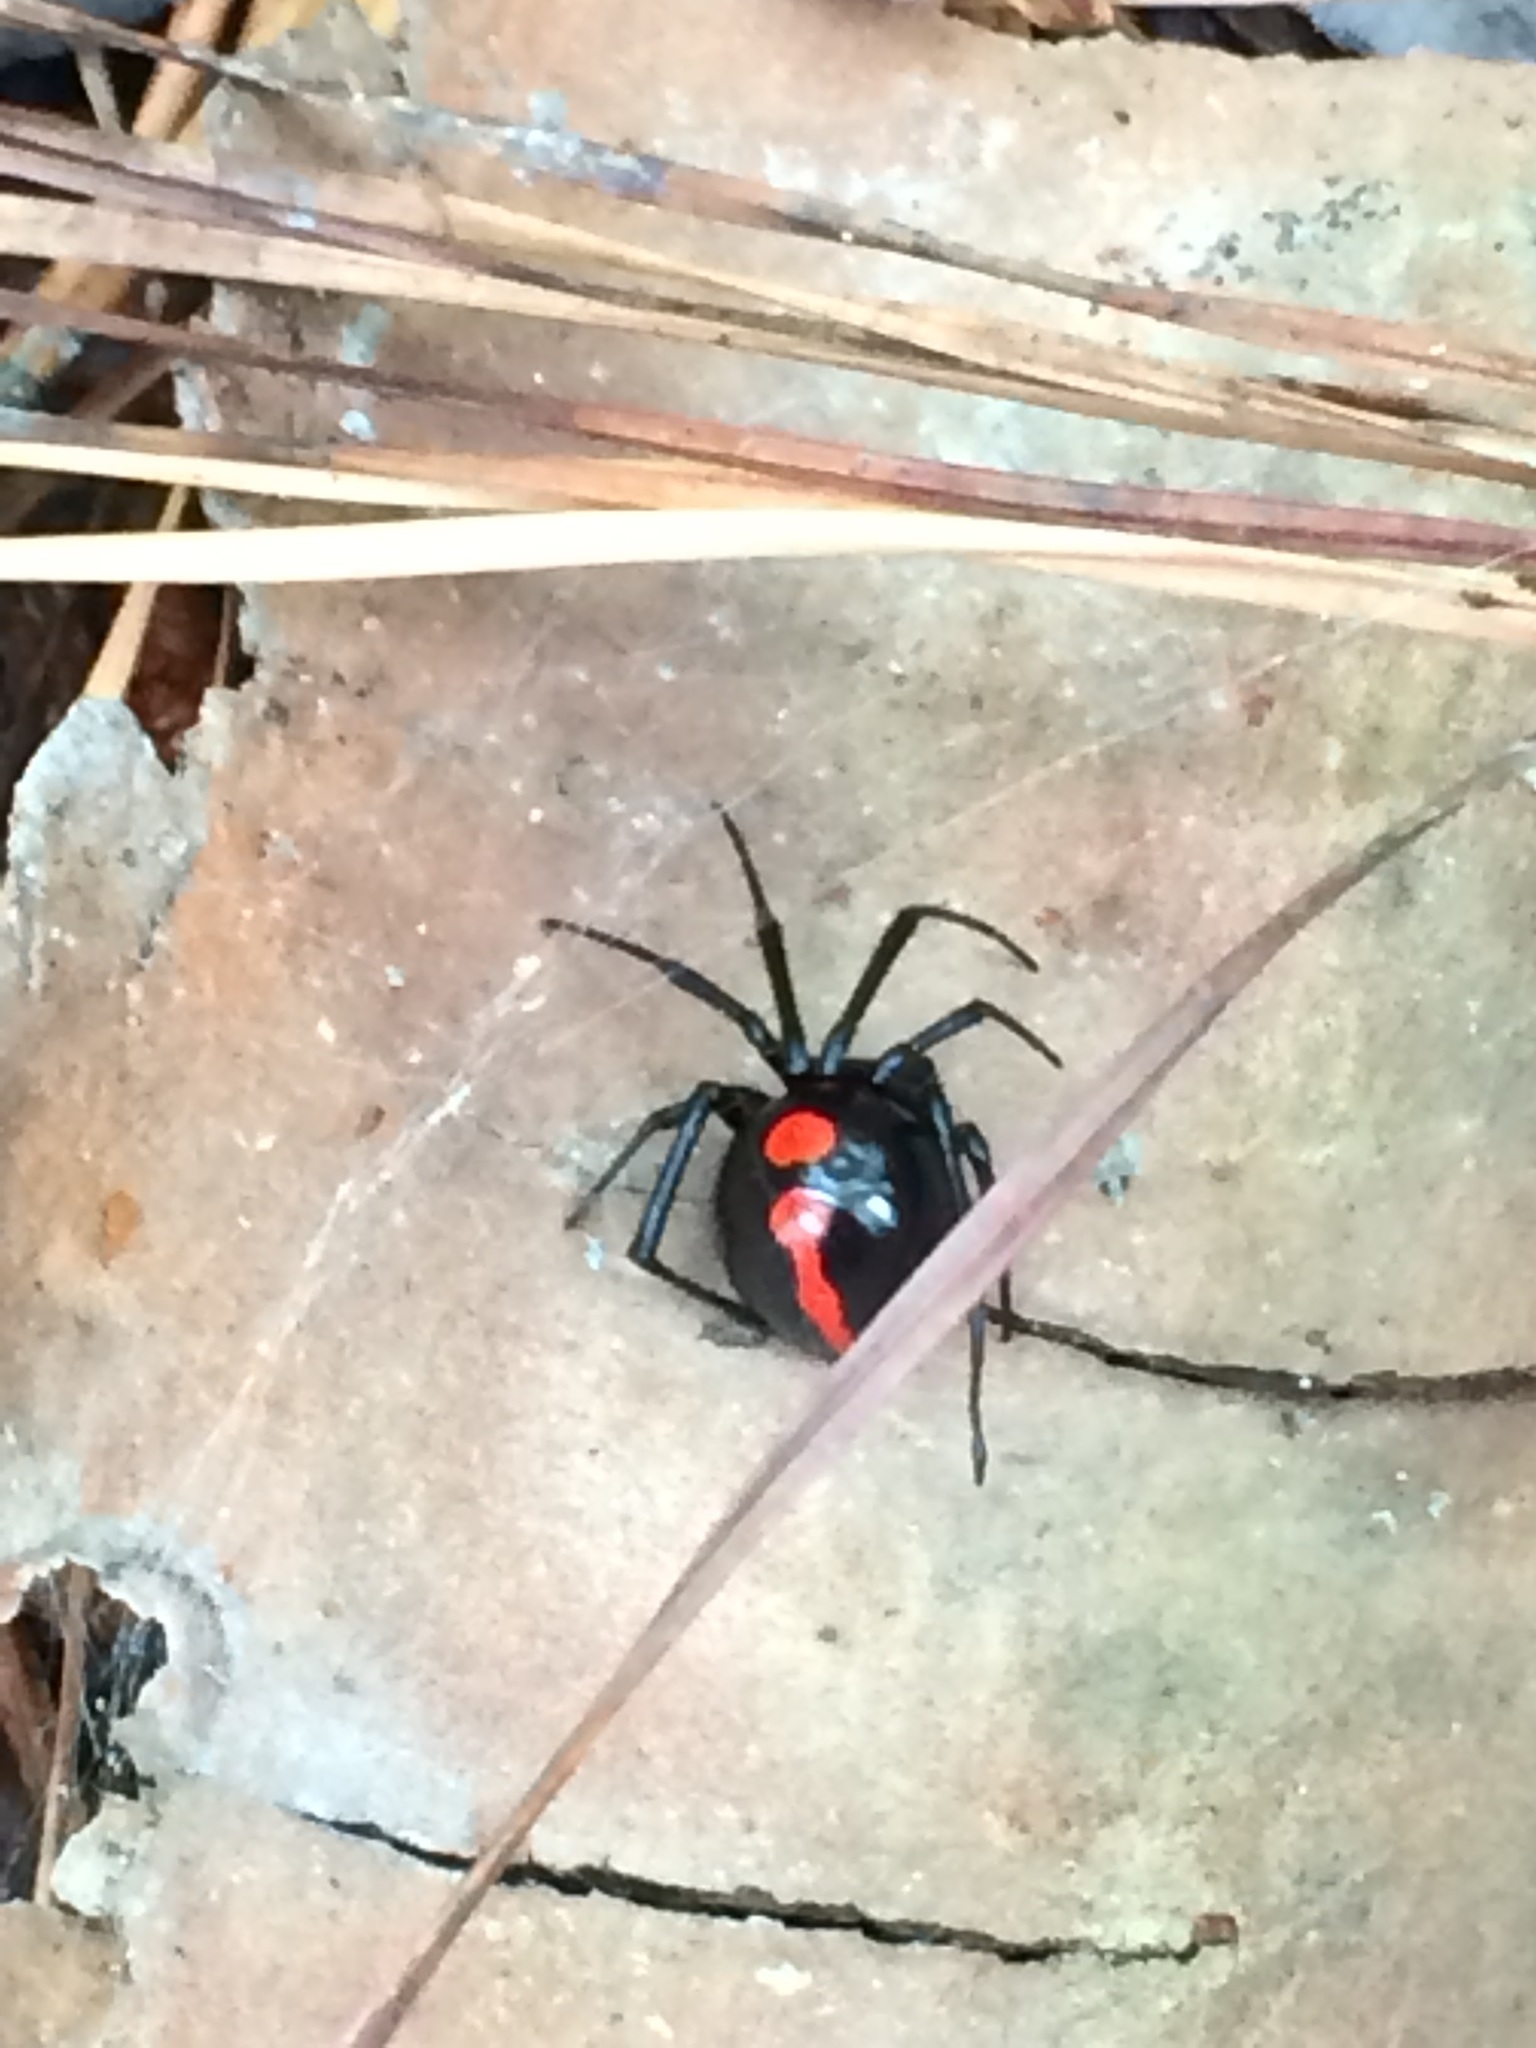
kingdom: Animalia
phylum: Arthropoda
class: Arachnida
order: Araneae
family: Theridiidae
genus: Latrodectus
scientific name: Latrodectus variolus
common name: Northern black widow
